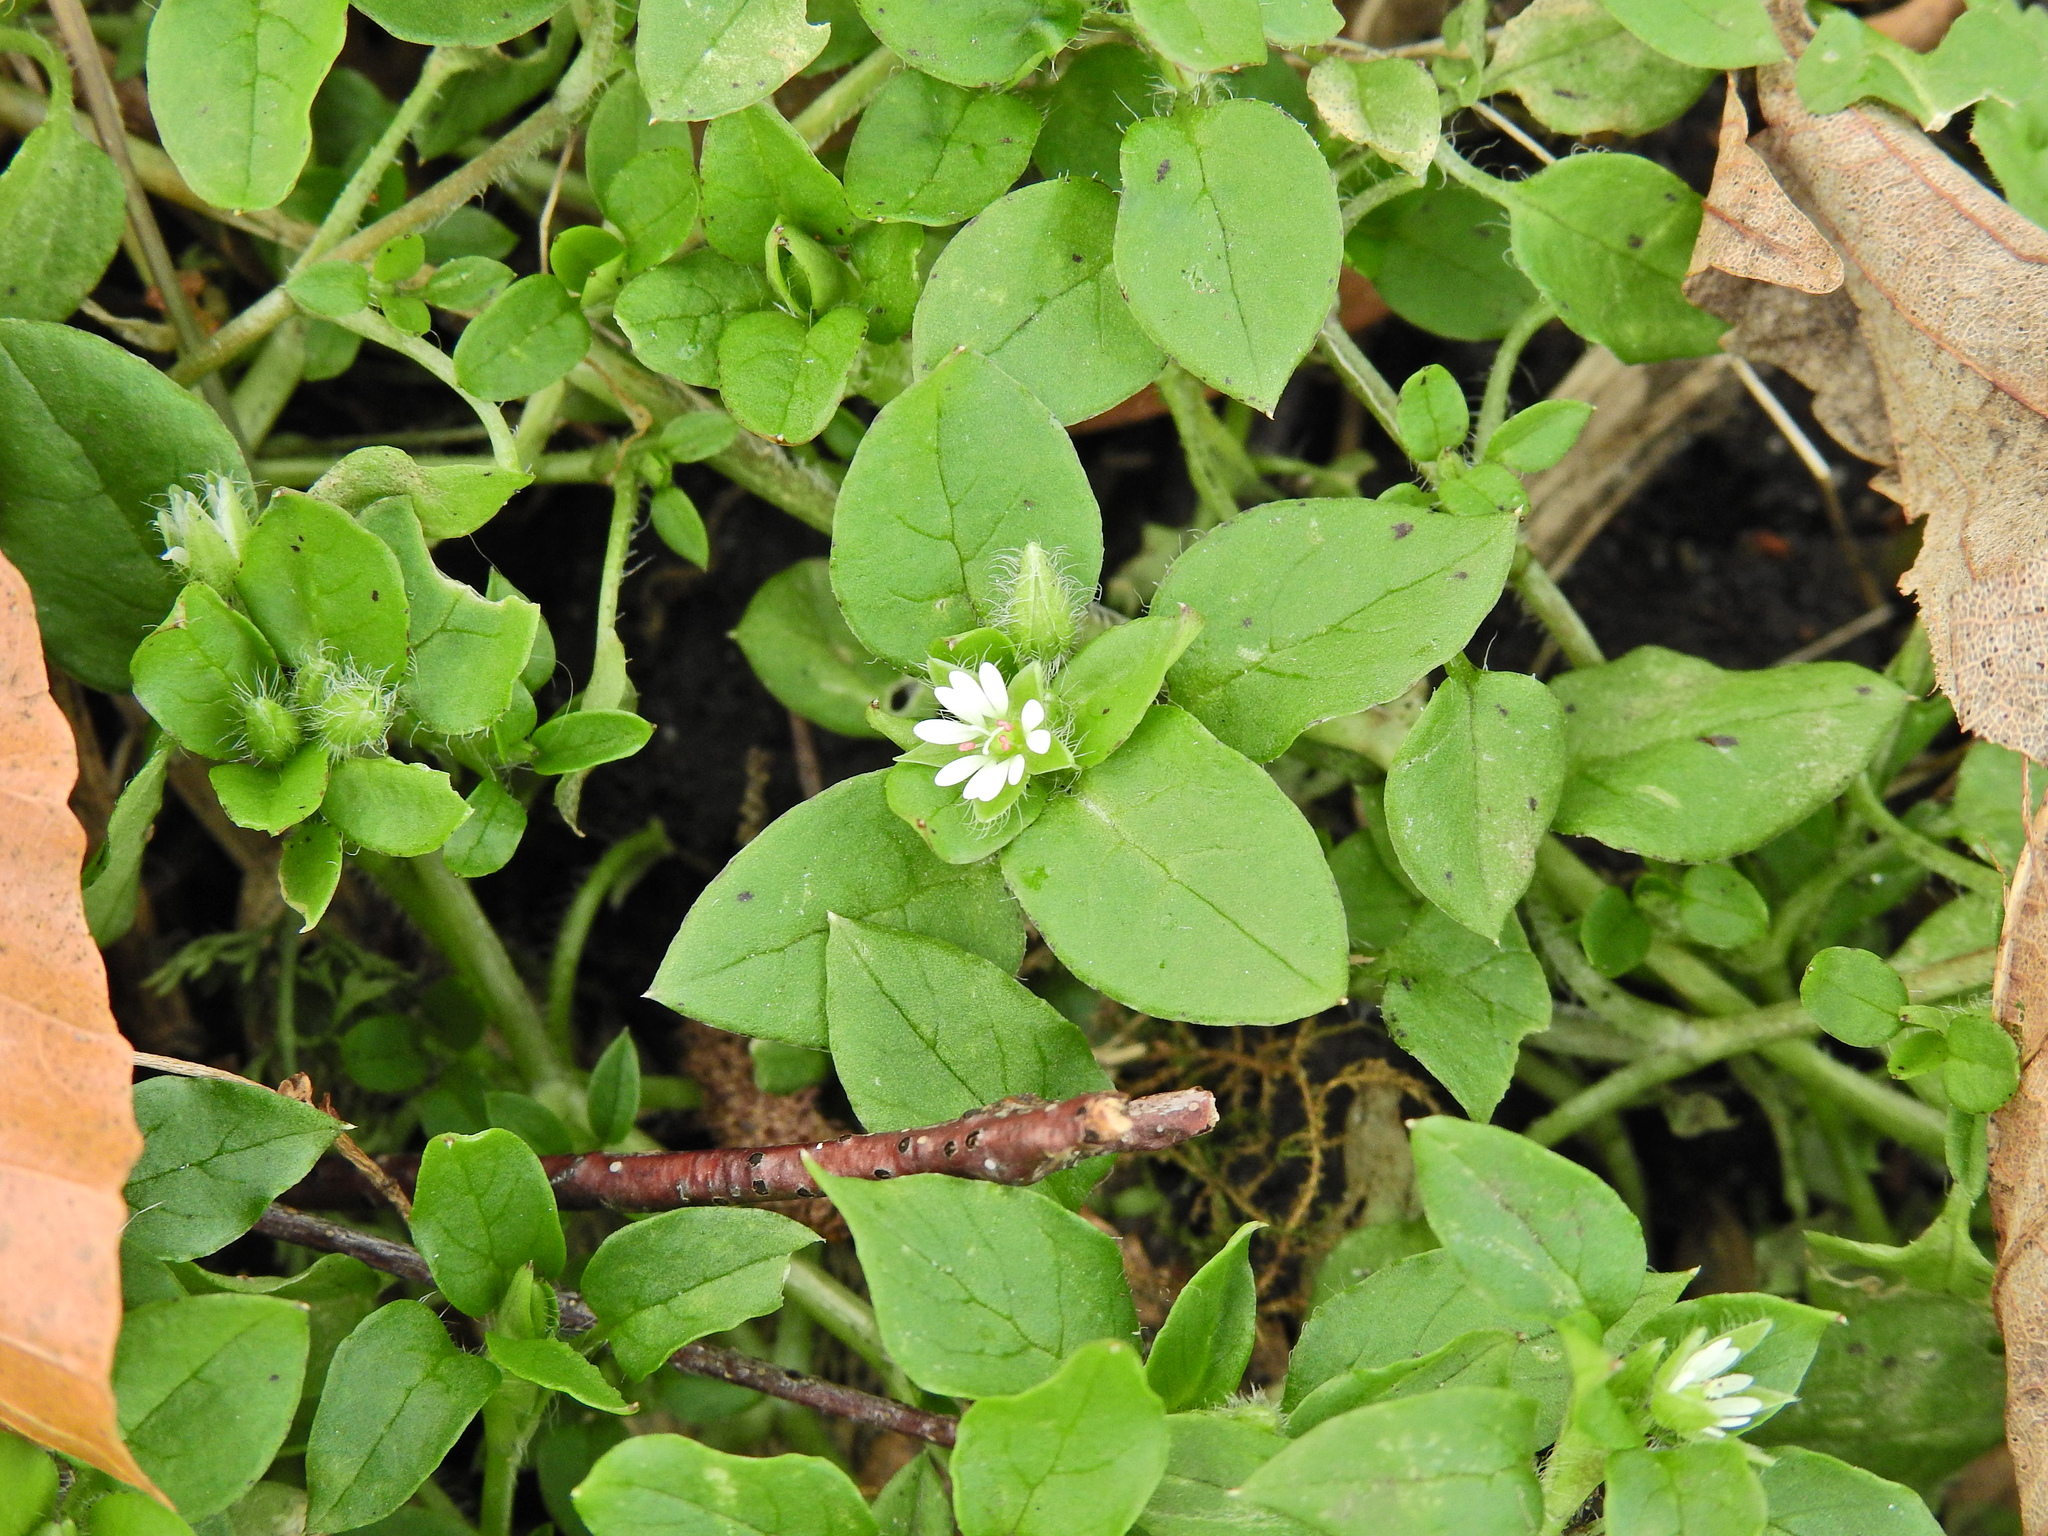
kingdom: Plantae
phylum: Tracheophyta
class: Magnoliopsida
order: Caryophyllales
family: Caryophyllaceae
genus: Stellaria
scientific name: Stellaria media
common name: Common chickweed
